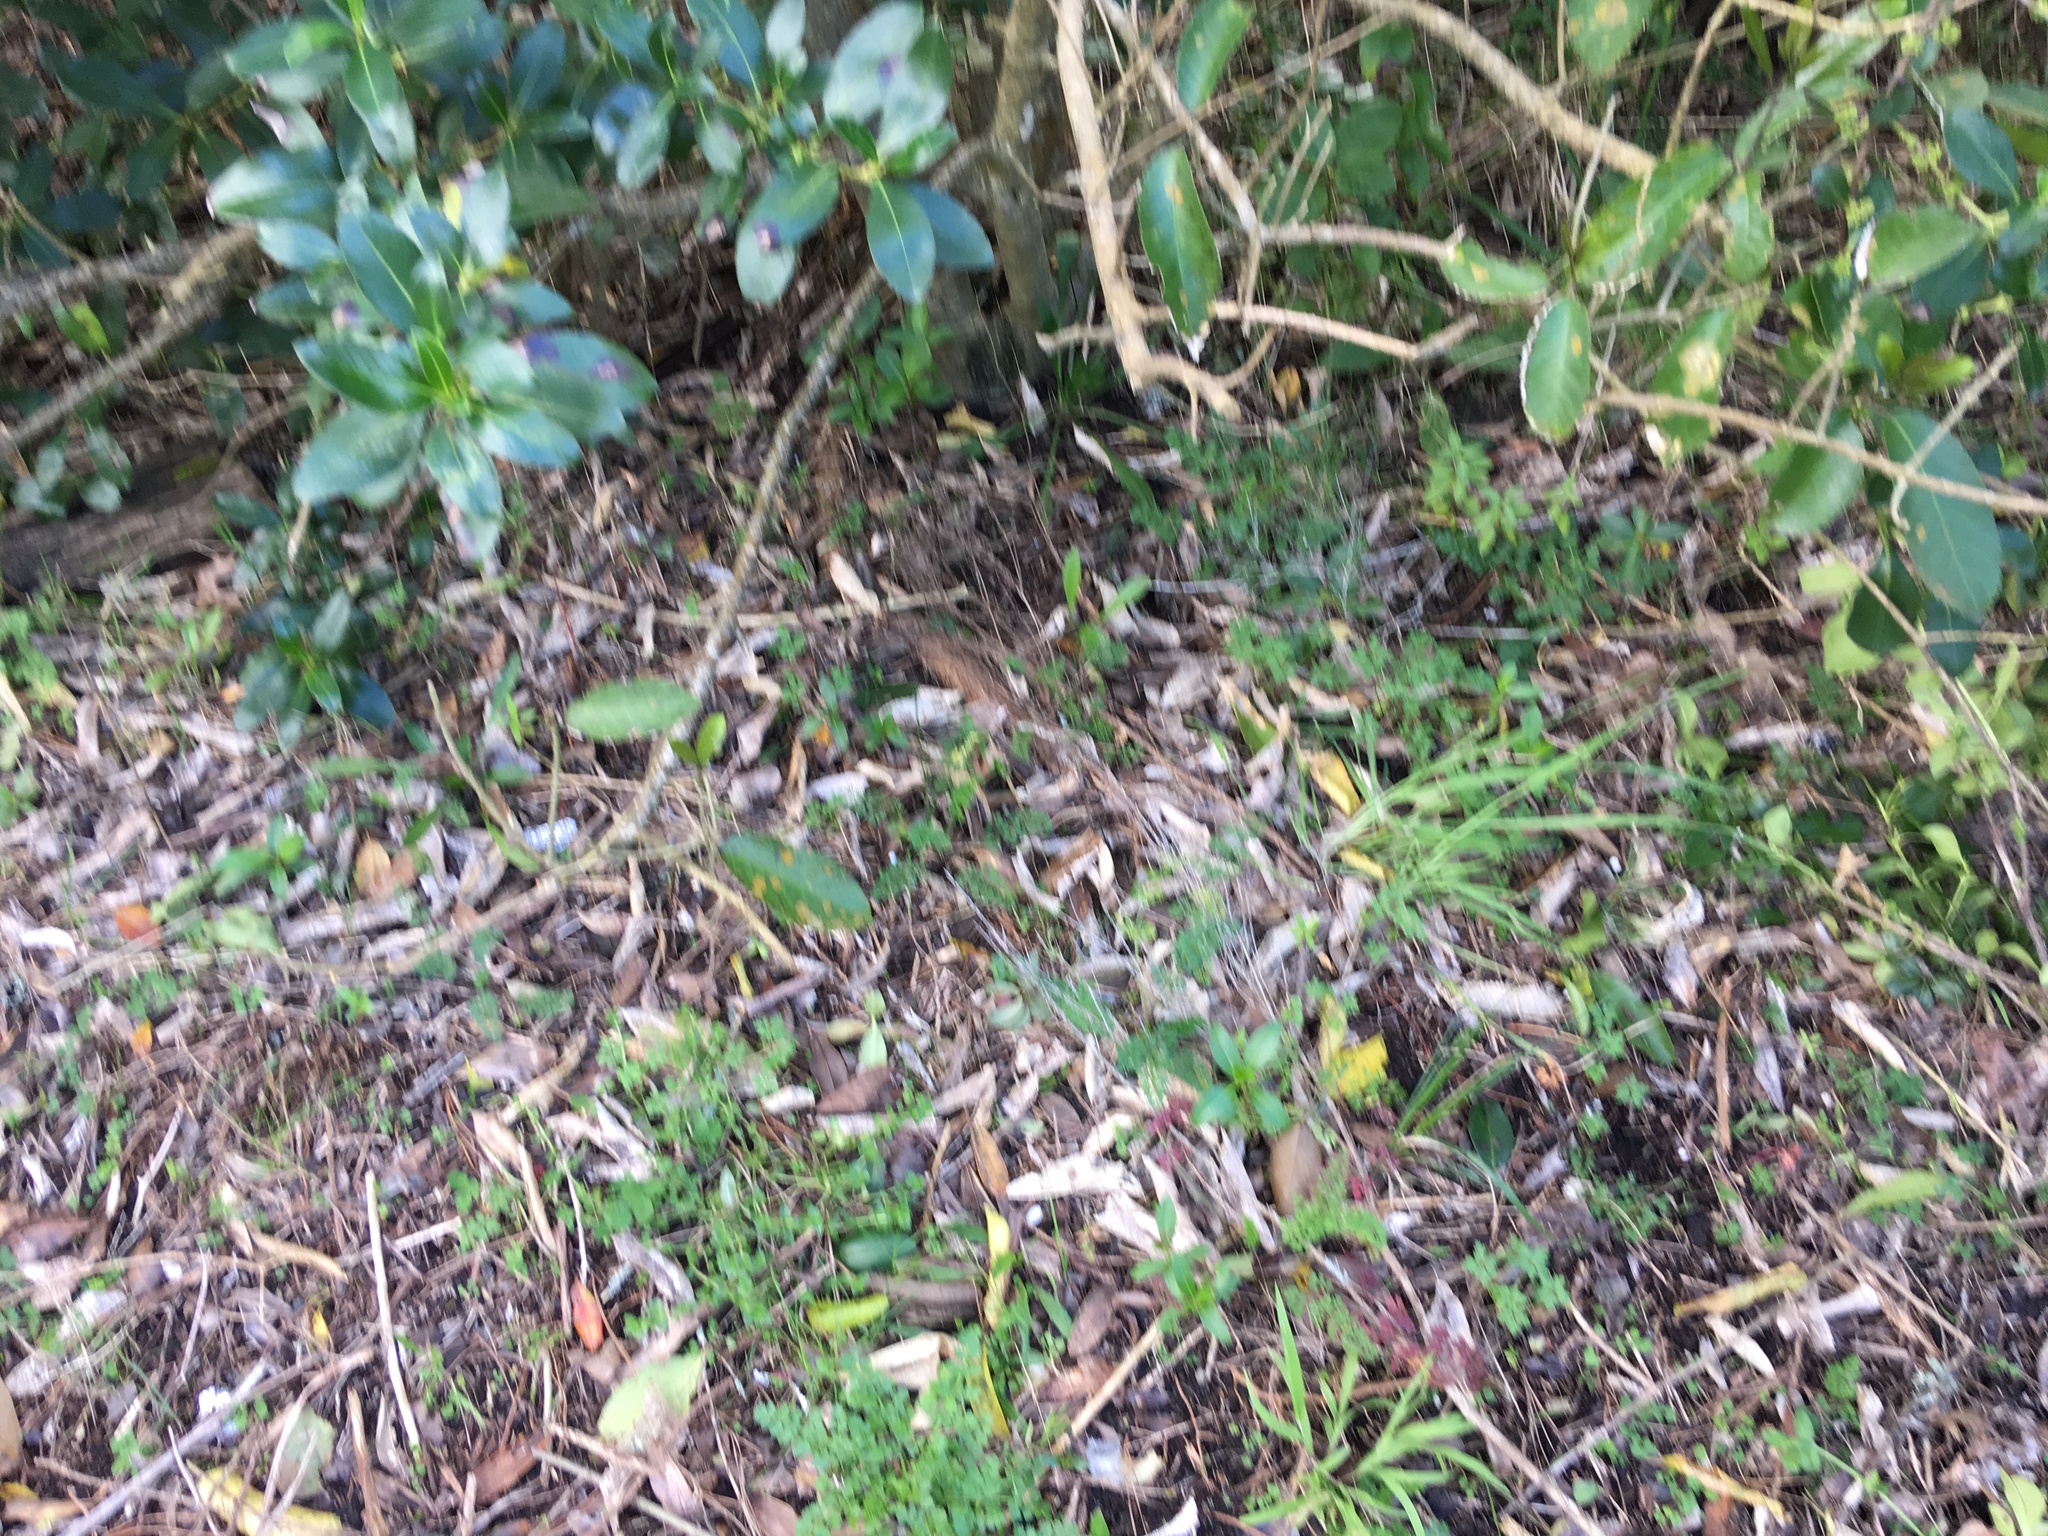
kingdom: Plantae
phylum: Tracheophyta
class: Magnoliopsida
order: Lamiales
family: Oleaceae
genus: Ligustrum
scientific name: Ligustrum lucidum
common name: Glossy privet
